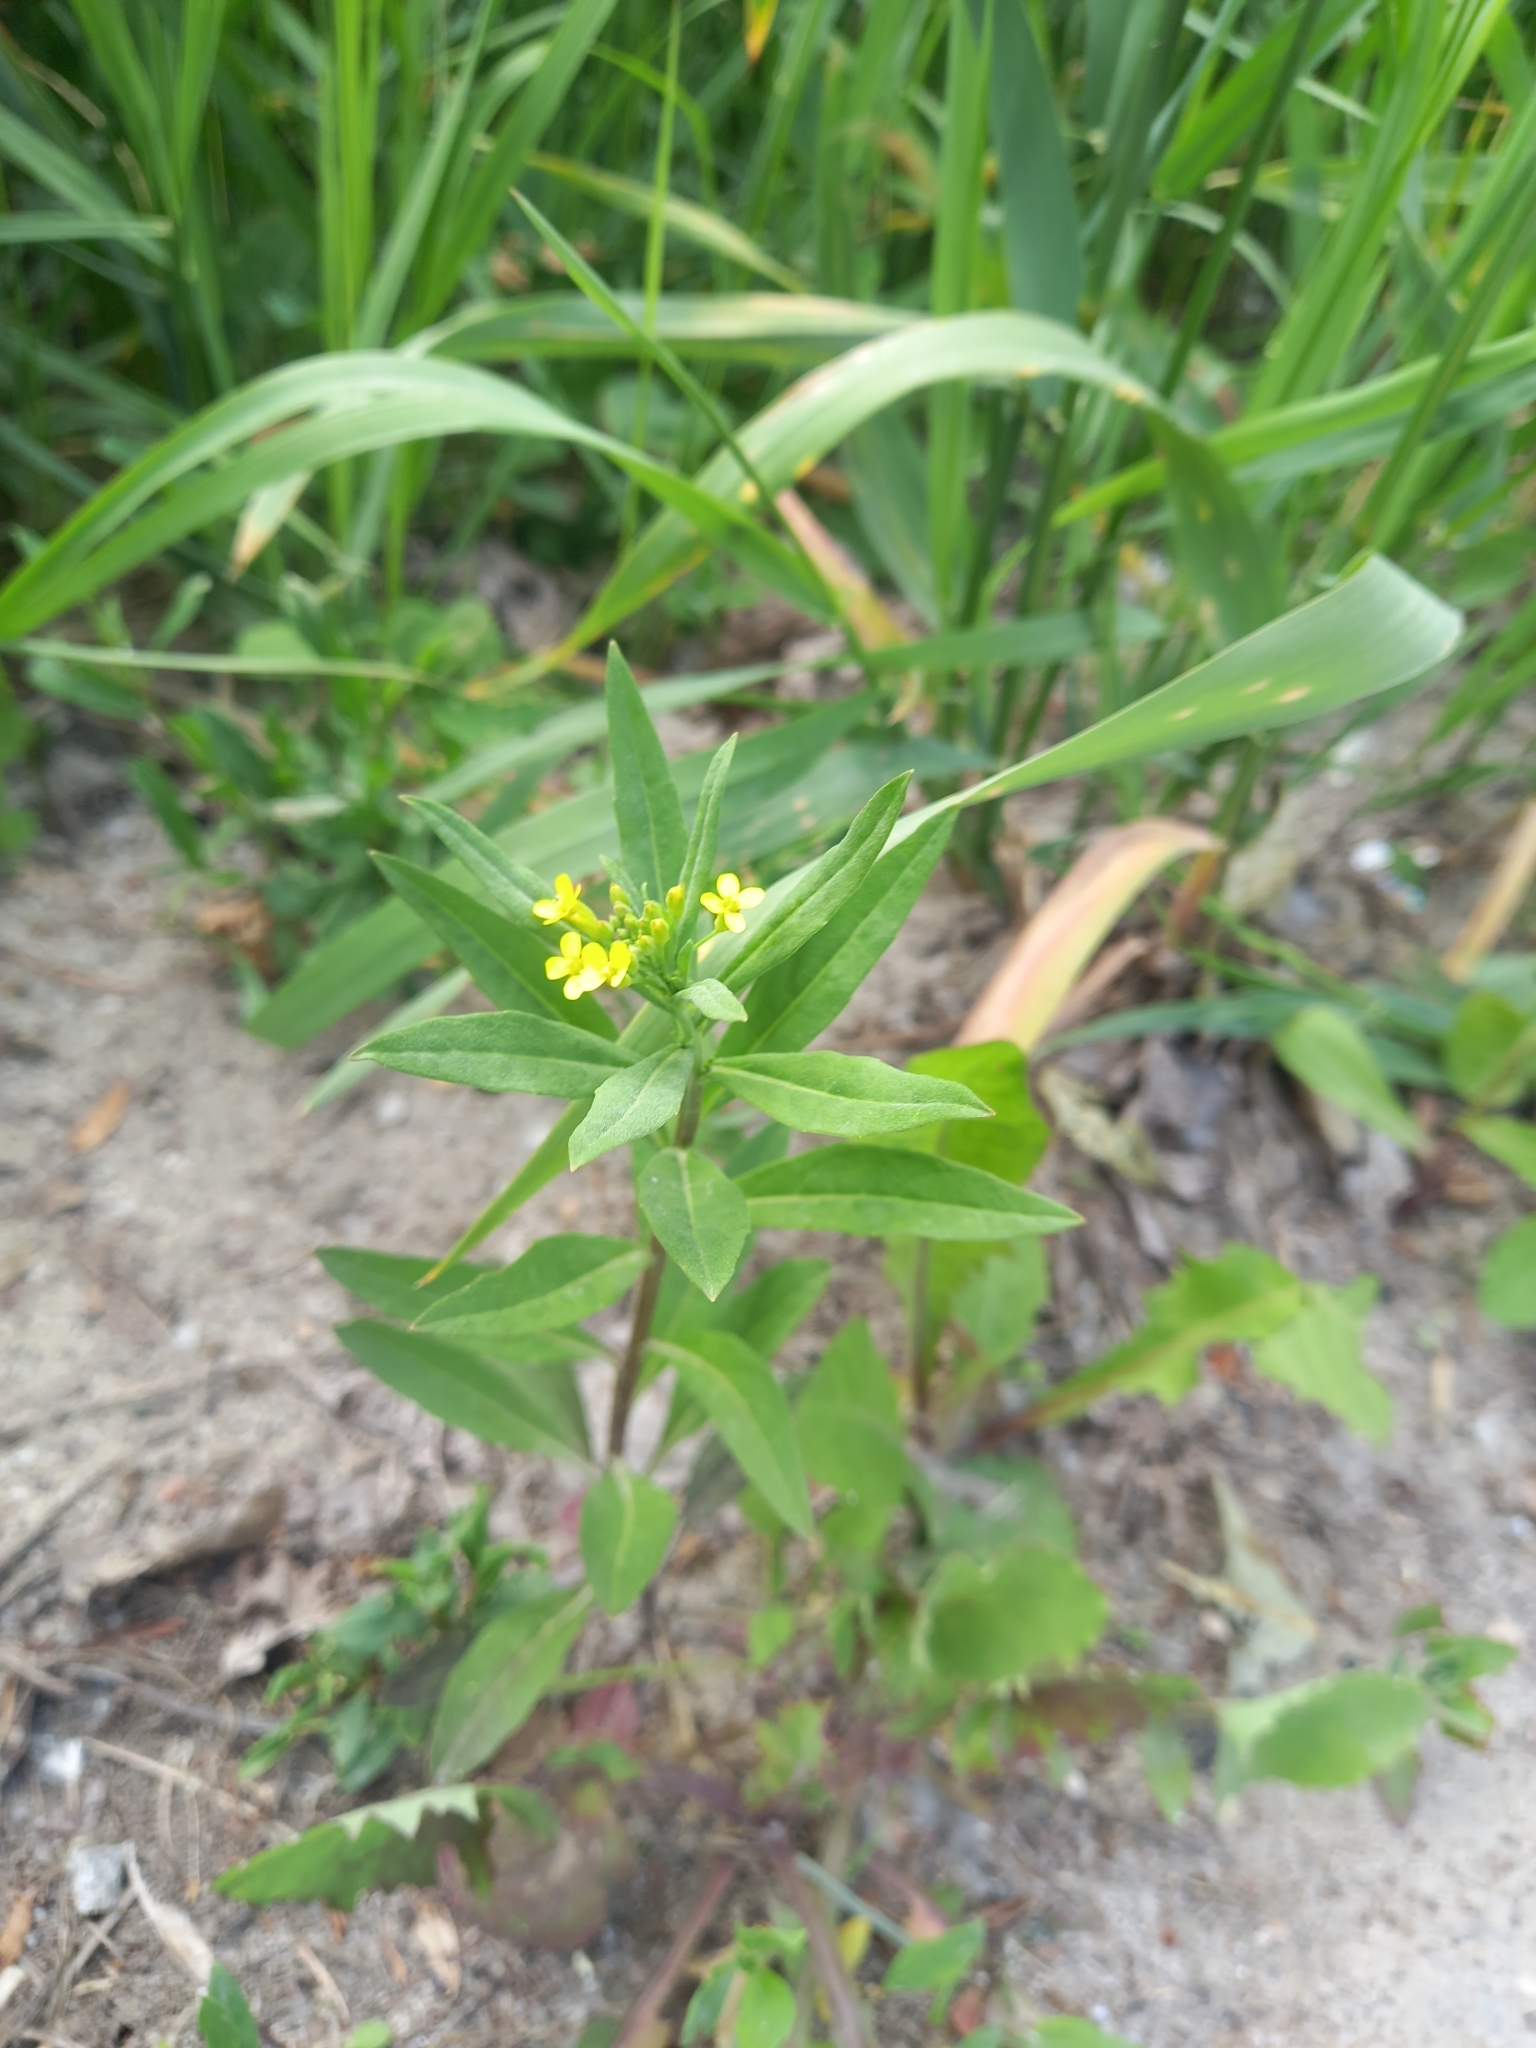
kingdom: Plantae
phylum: Tracheophyta
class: Magnoliopsida
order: Brassicales
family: Brassicaceae
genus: Erysimum
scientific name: Erysimum cheiranthoides
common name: Treacle mustard
